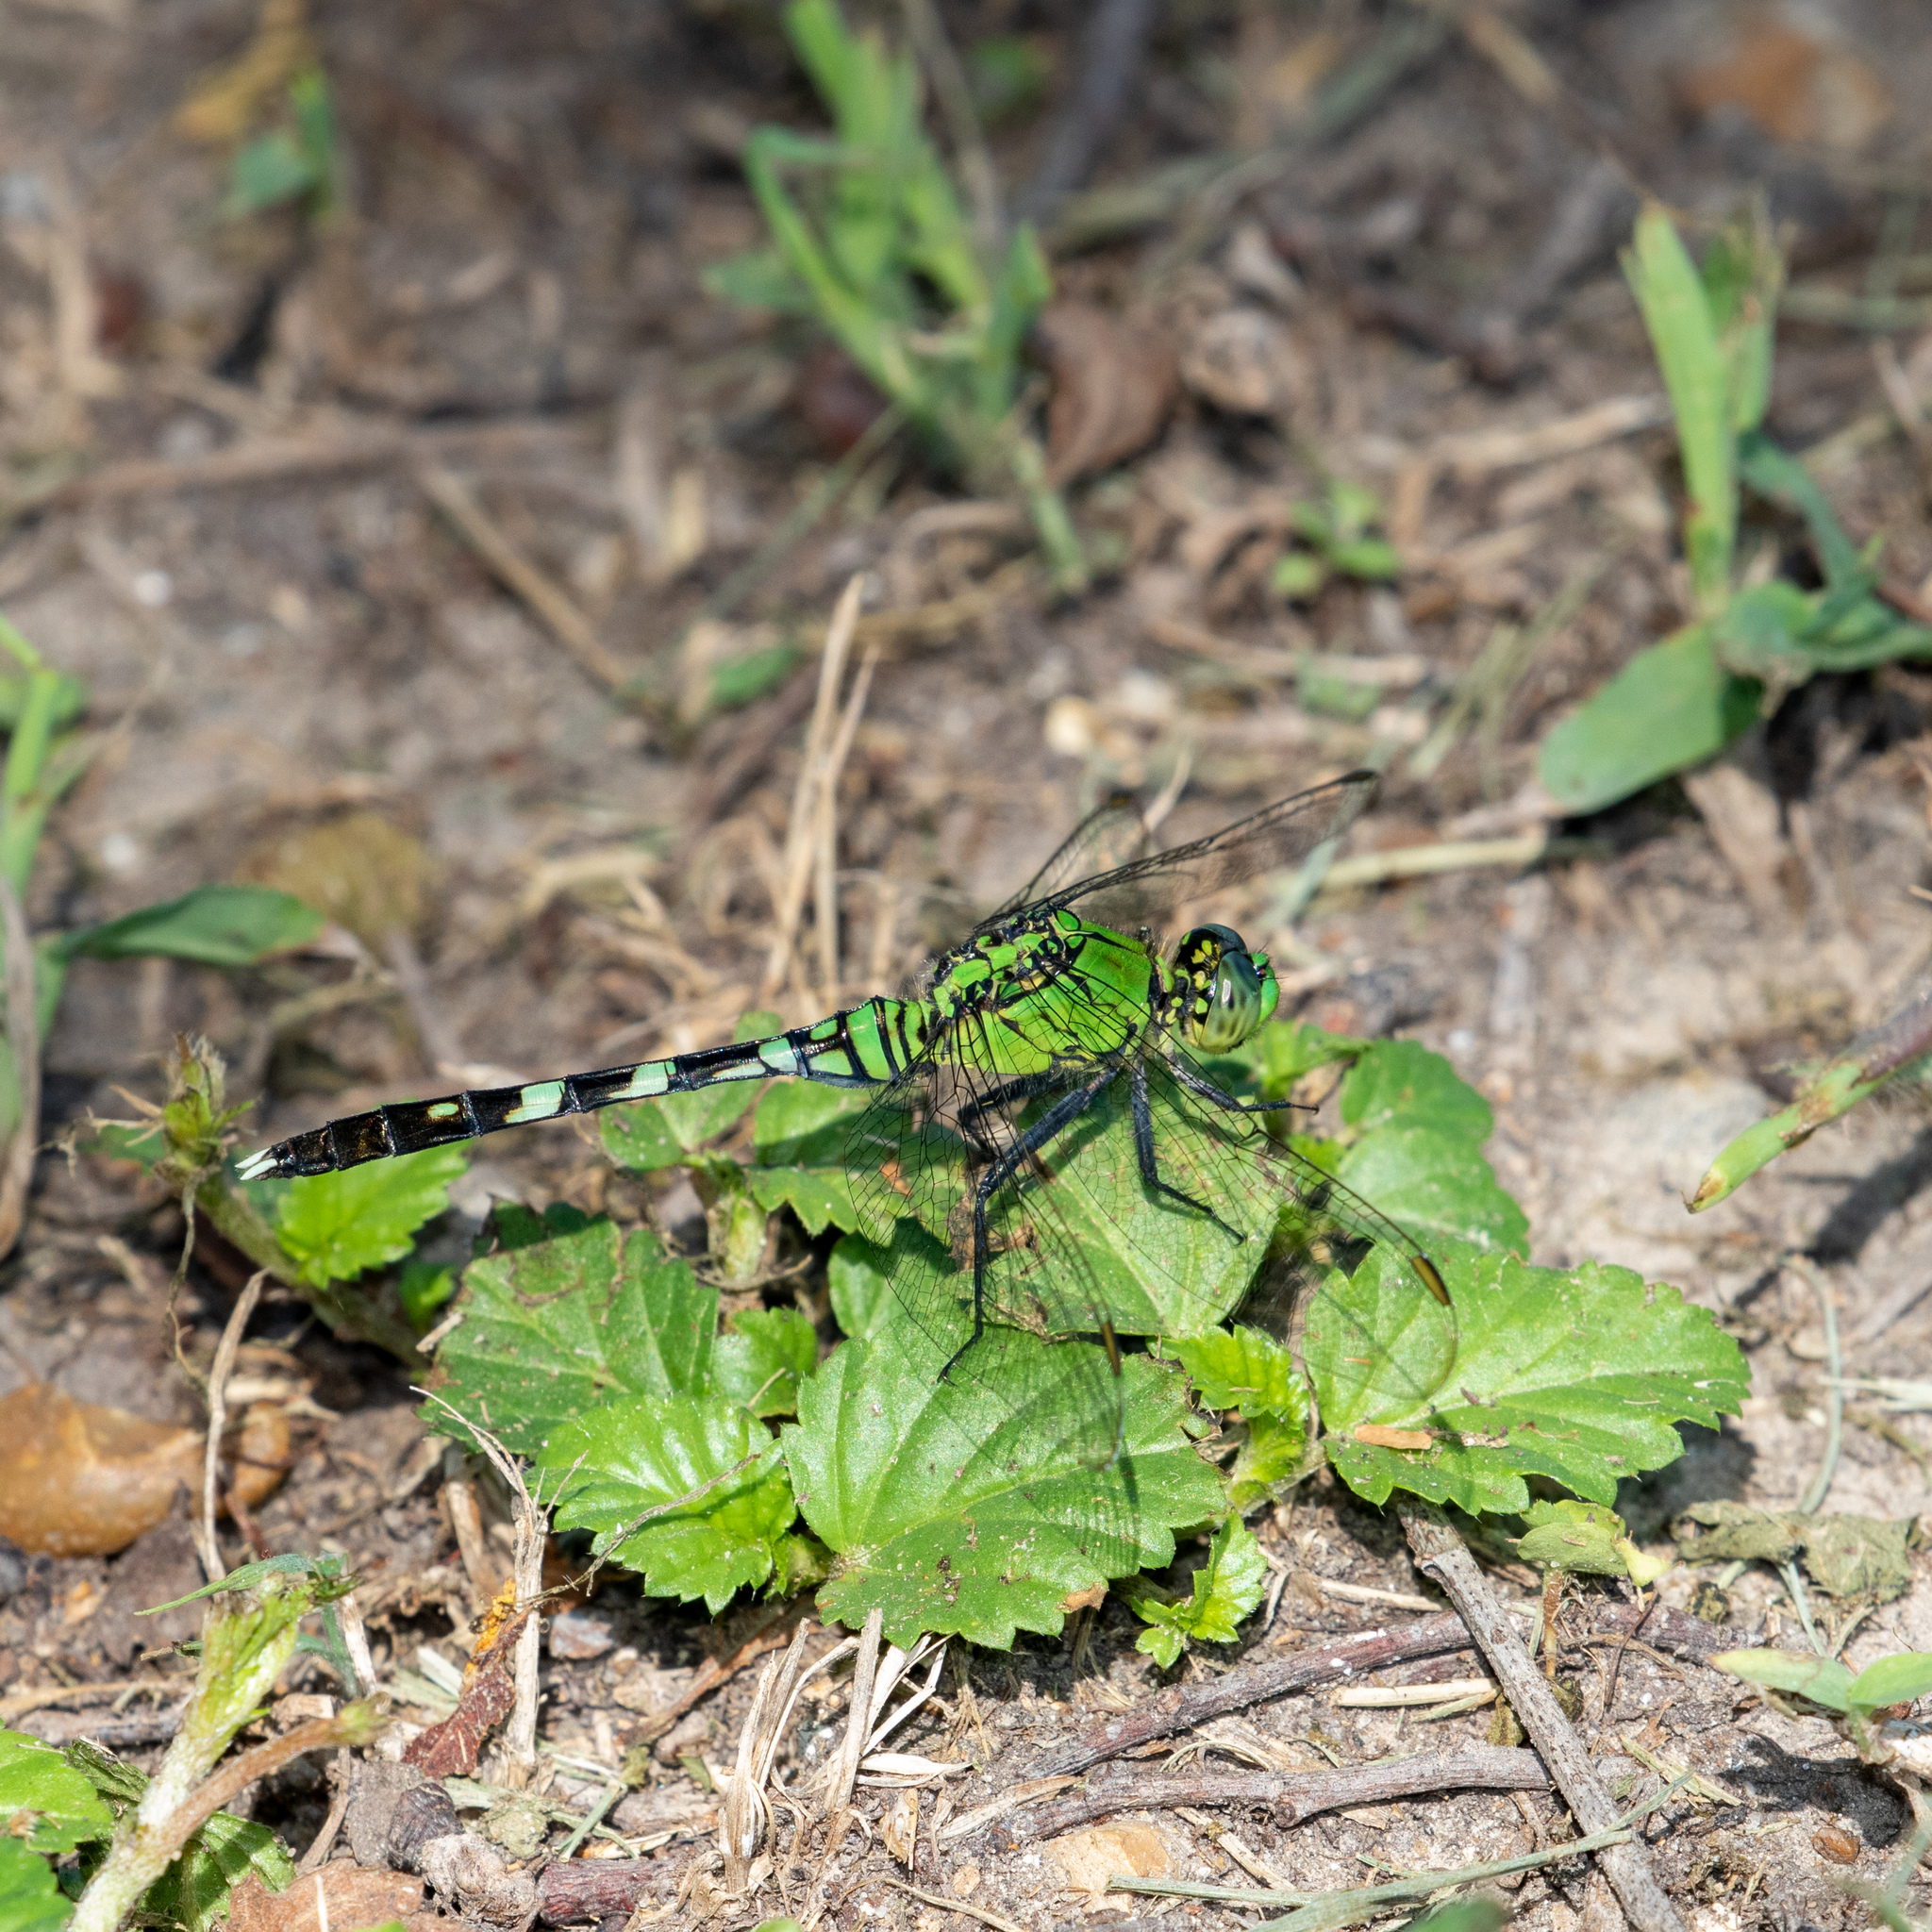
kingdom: Animalia
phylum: Arthropoda
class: Insecta
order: Odonata
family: Libellulidae
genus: Erythemis
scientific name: Erythemis simplicicollis
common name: Eastern pondhawk
